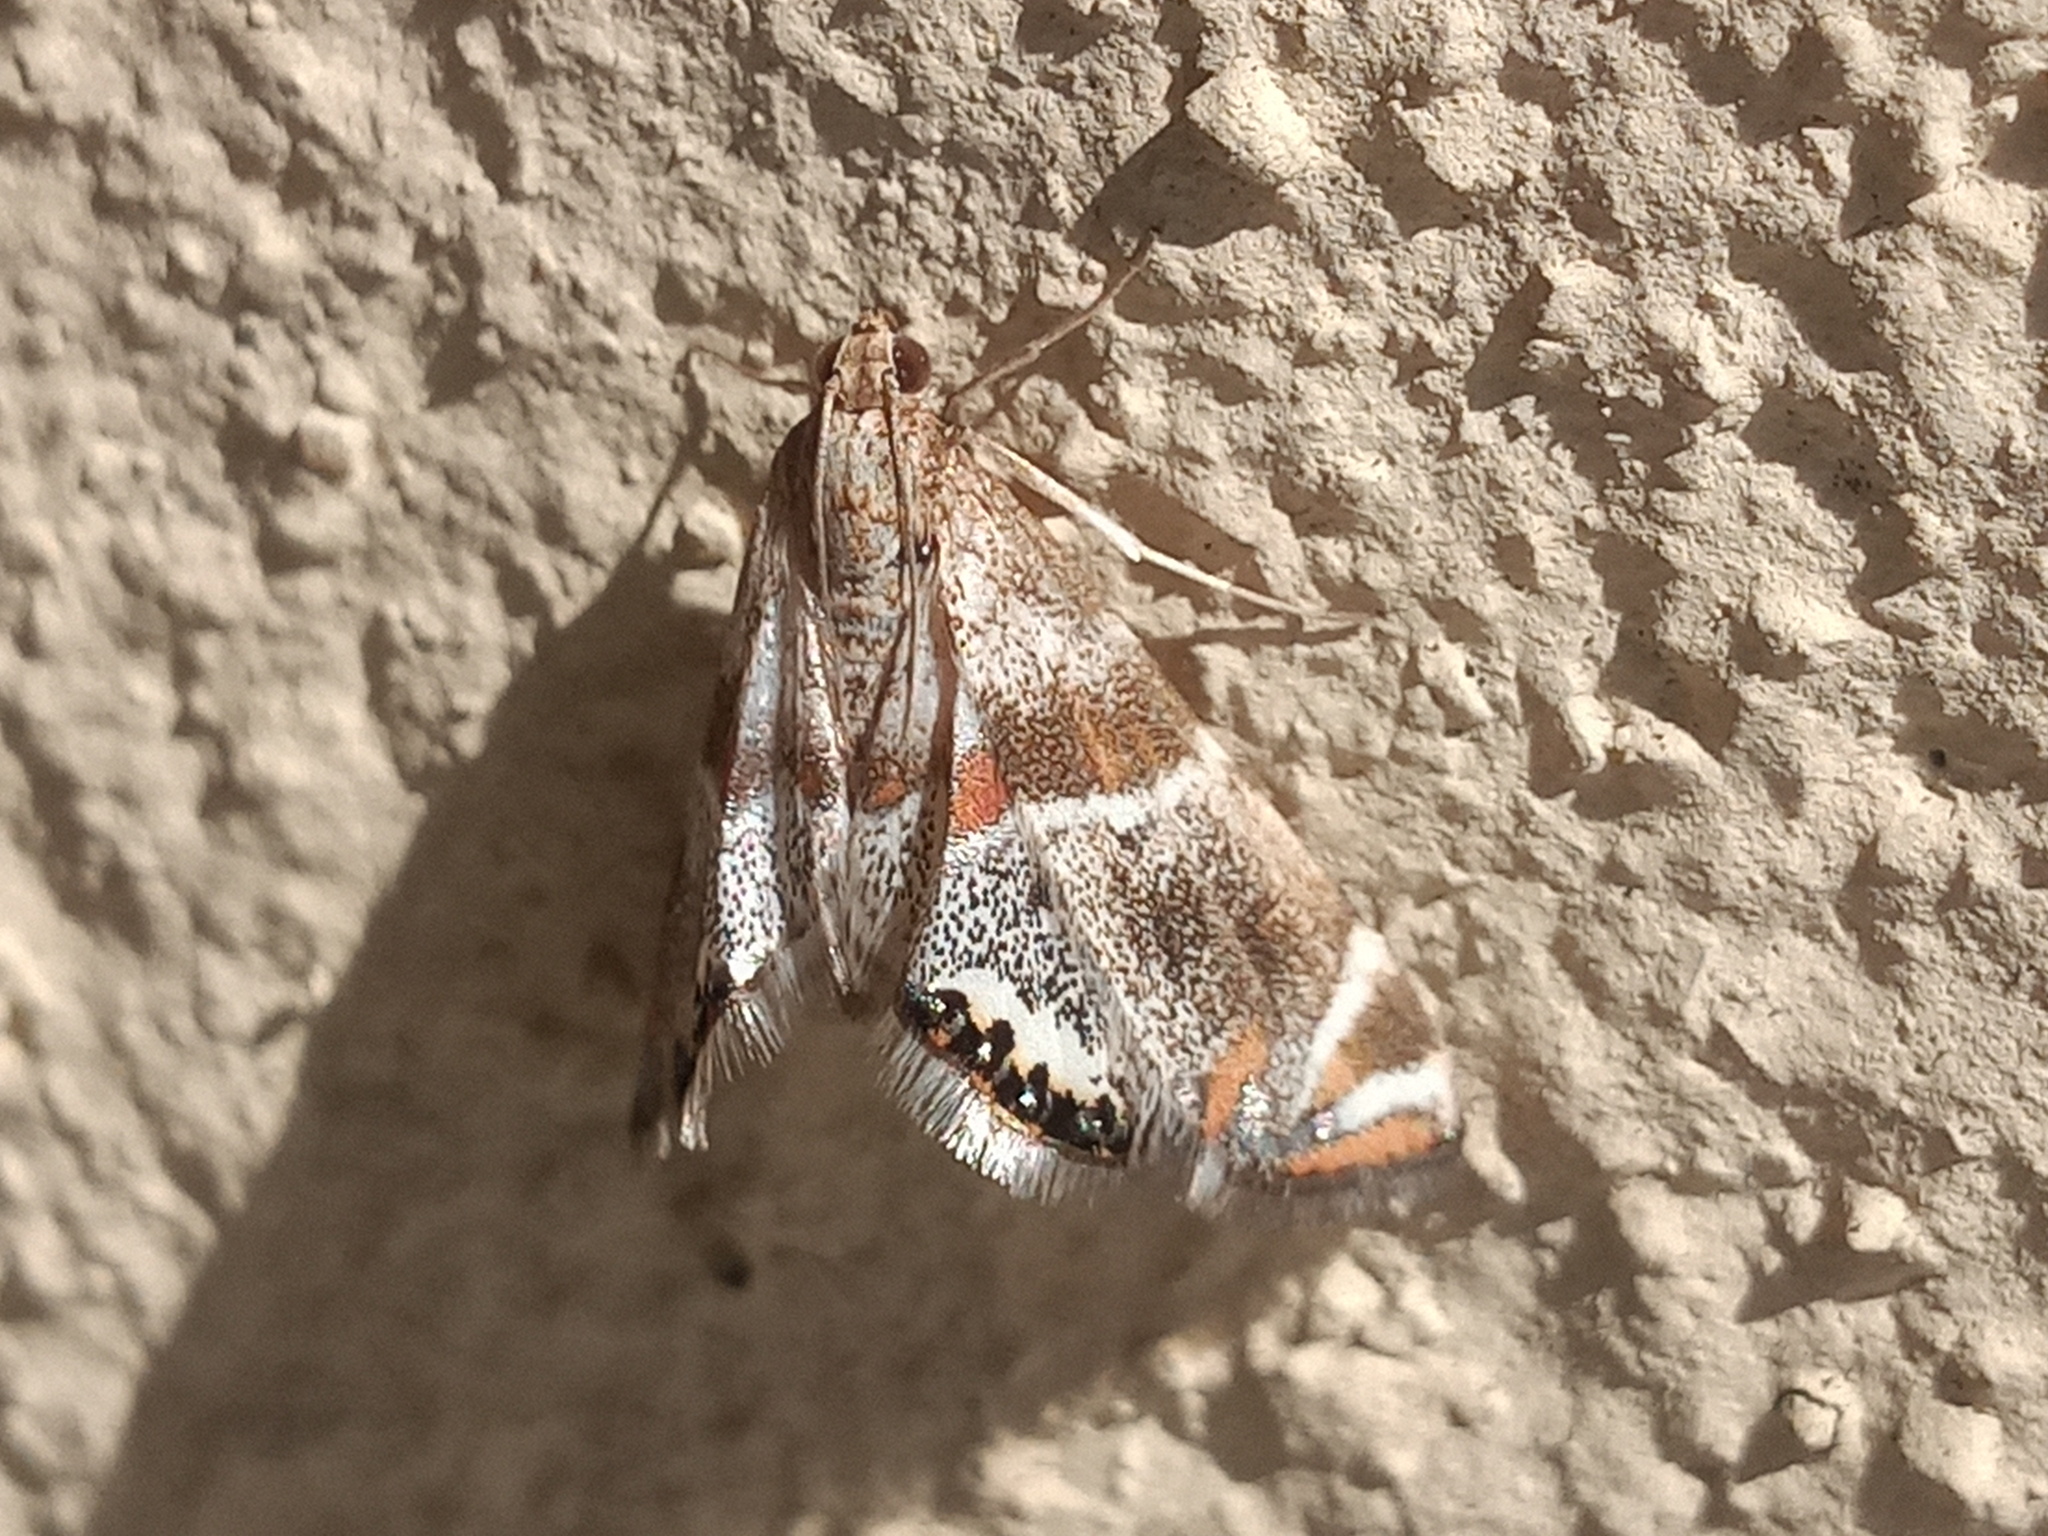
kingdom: Animalia
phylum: Arthropoda
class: Insecta
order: Lepidoptera
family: Crambidae
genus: Petrophila
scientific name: Petrophila jaliscalis
